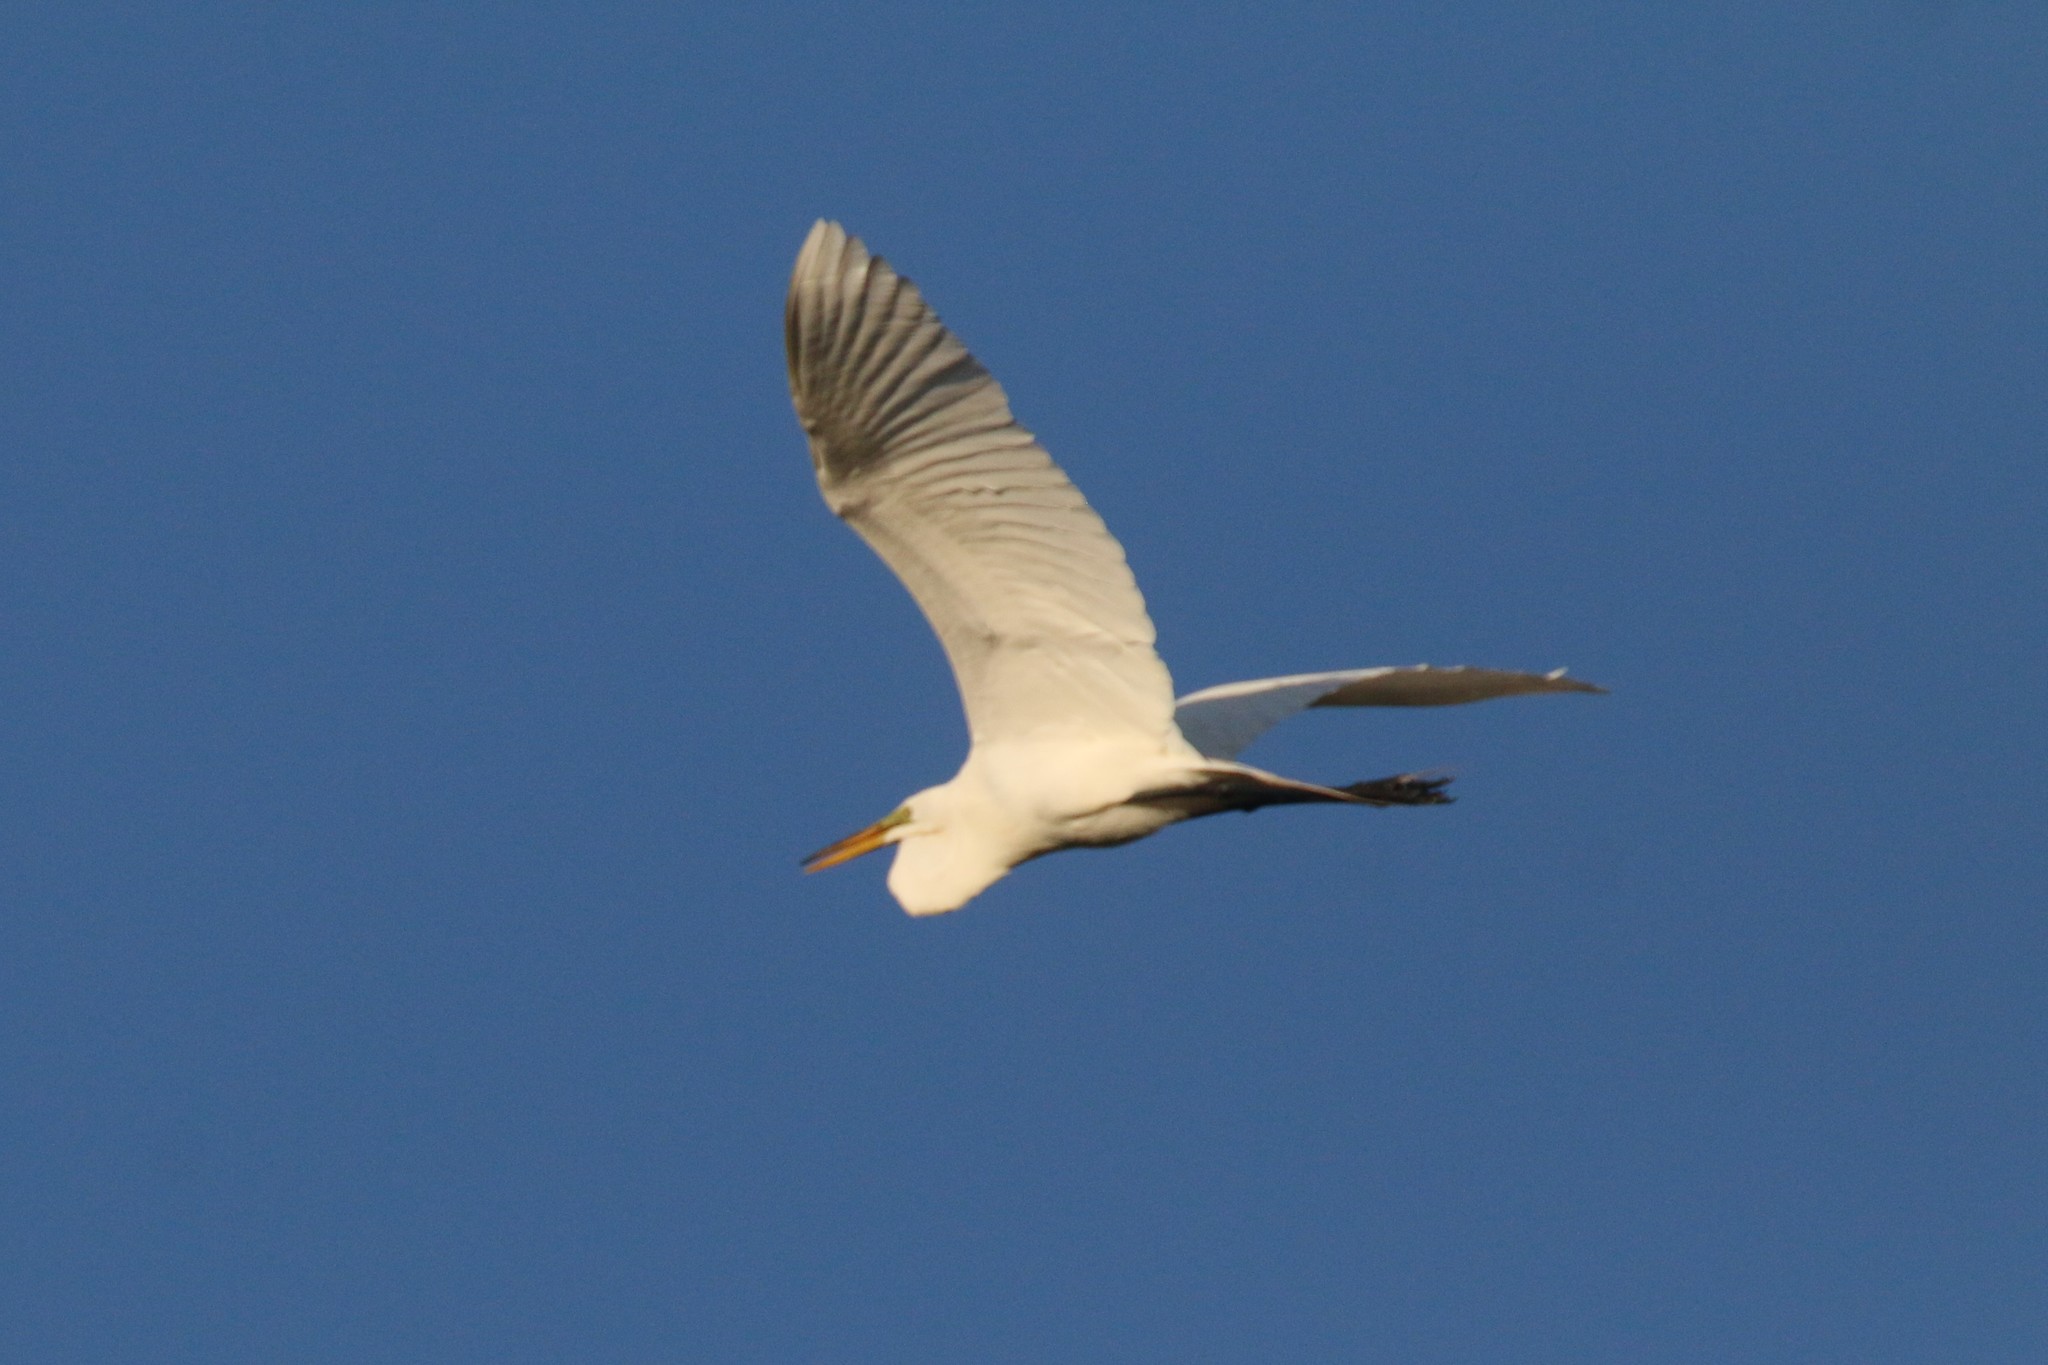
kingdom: Animalia
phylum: Chordata
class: Aves
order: Pelecaniformes
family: Ardeidae
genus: Ardea
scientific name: Ardea alba
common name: Great egret
